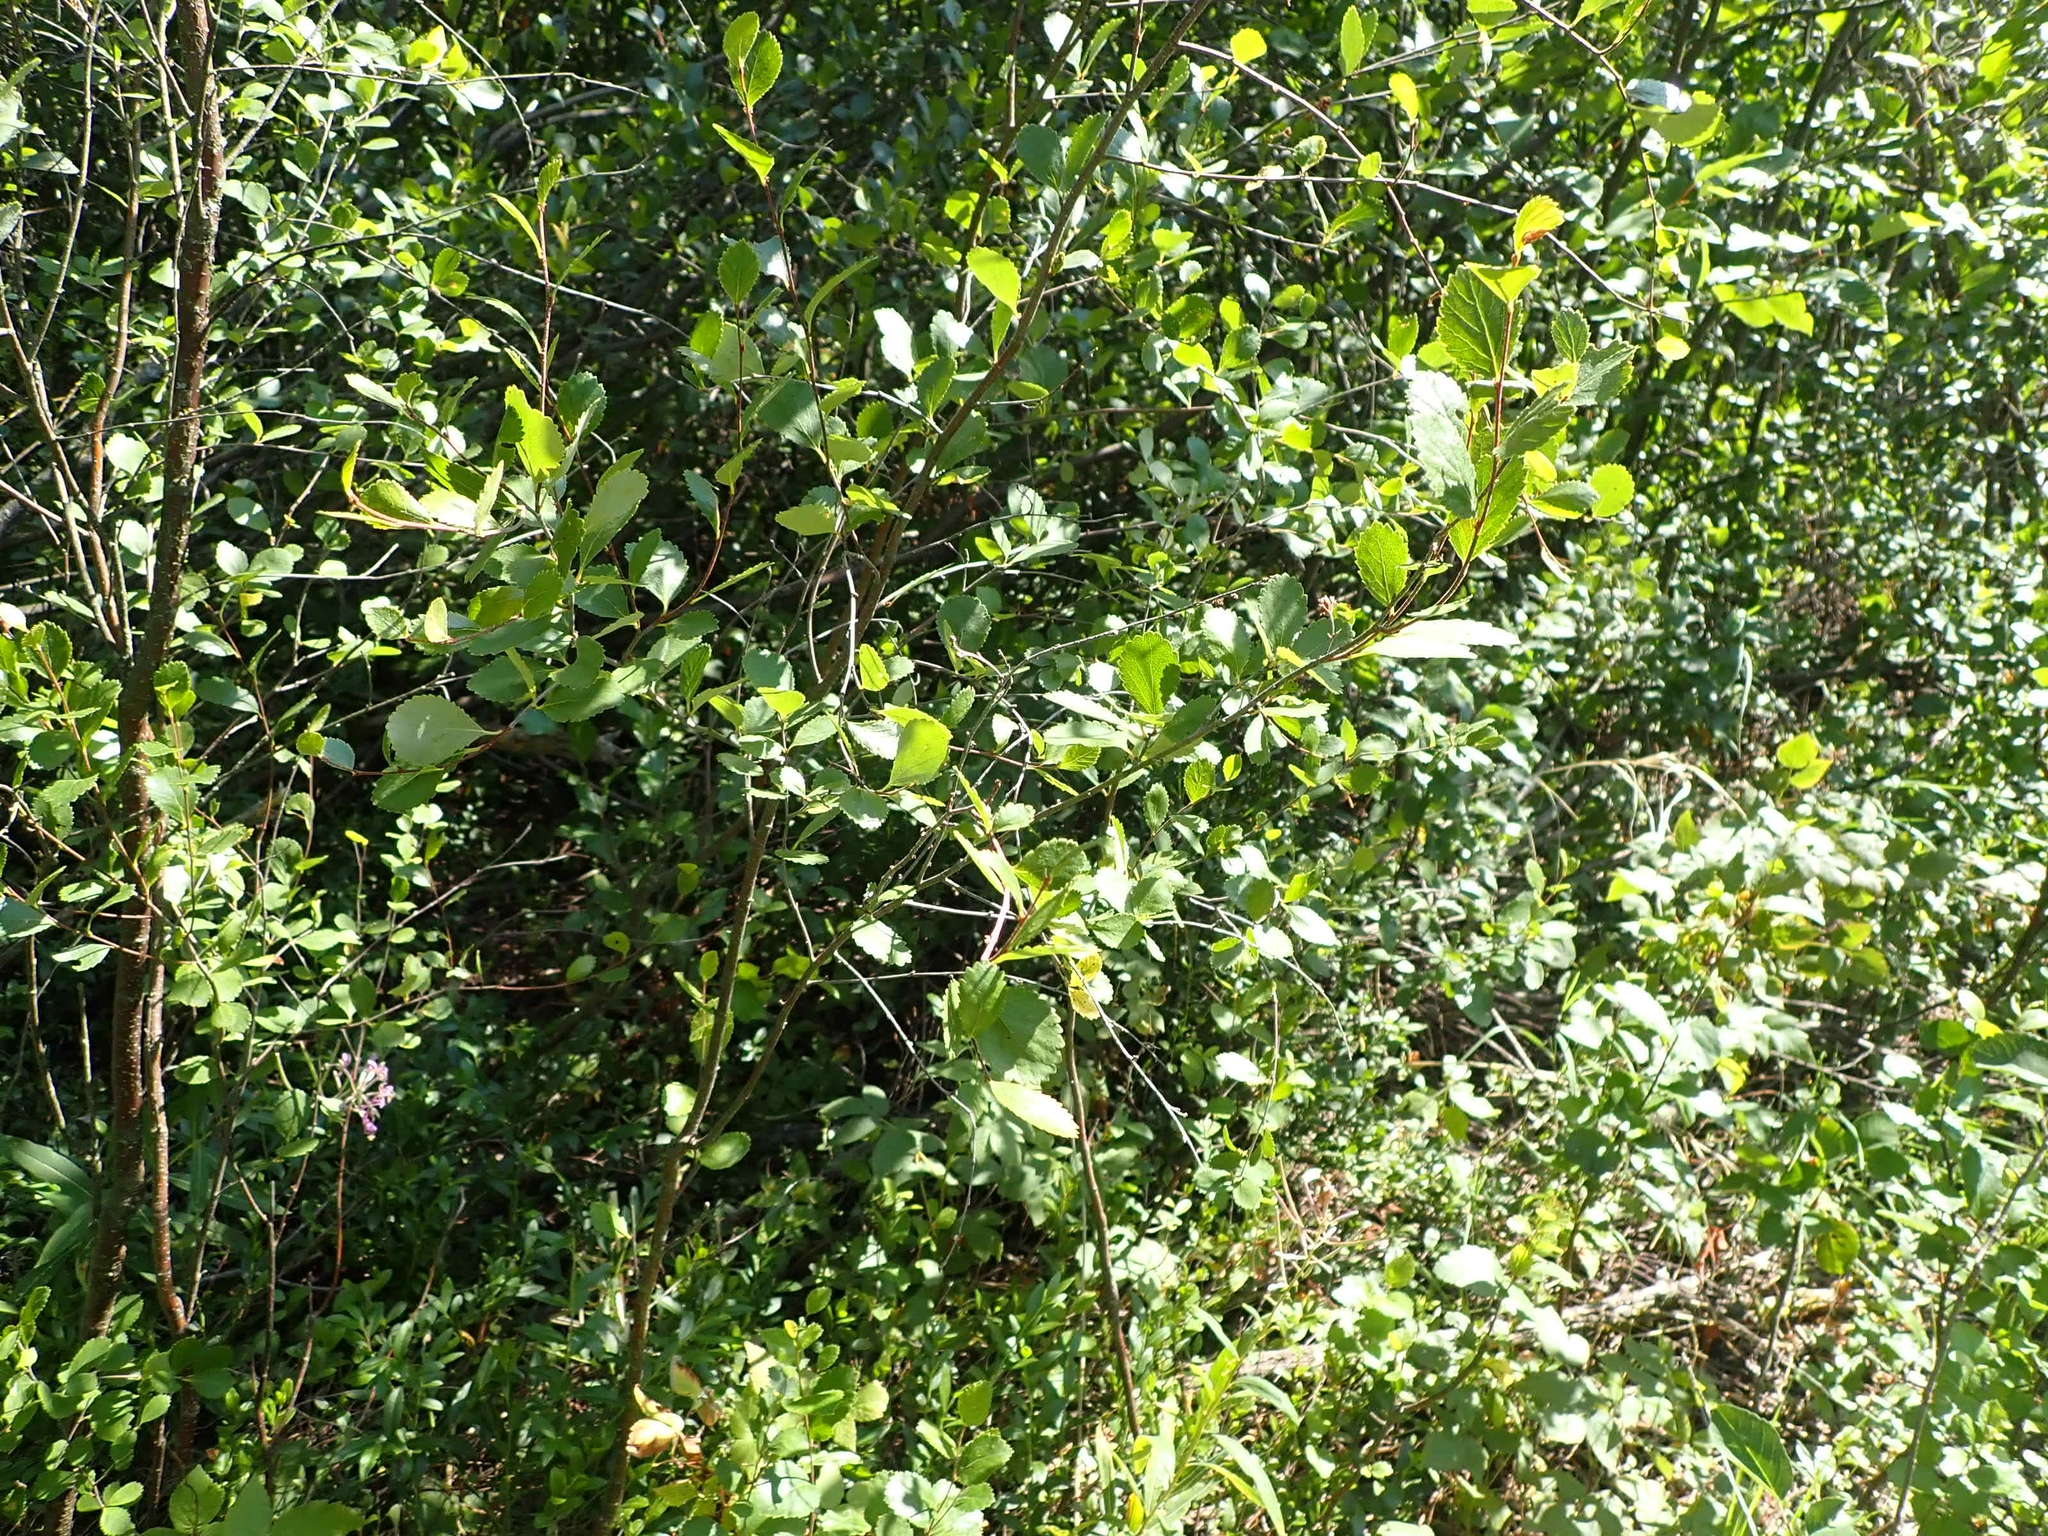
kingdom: Plantae
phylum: Tracheophyta
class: Magnoliopsida
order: Fagales
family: Betulaceae
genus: Betula
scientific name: Betula pumila
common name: Bog birch
